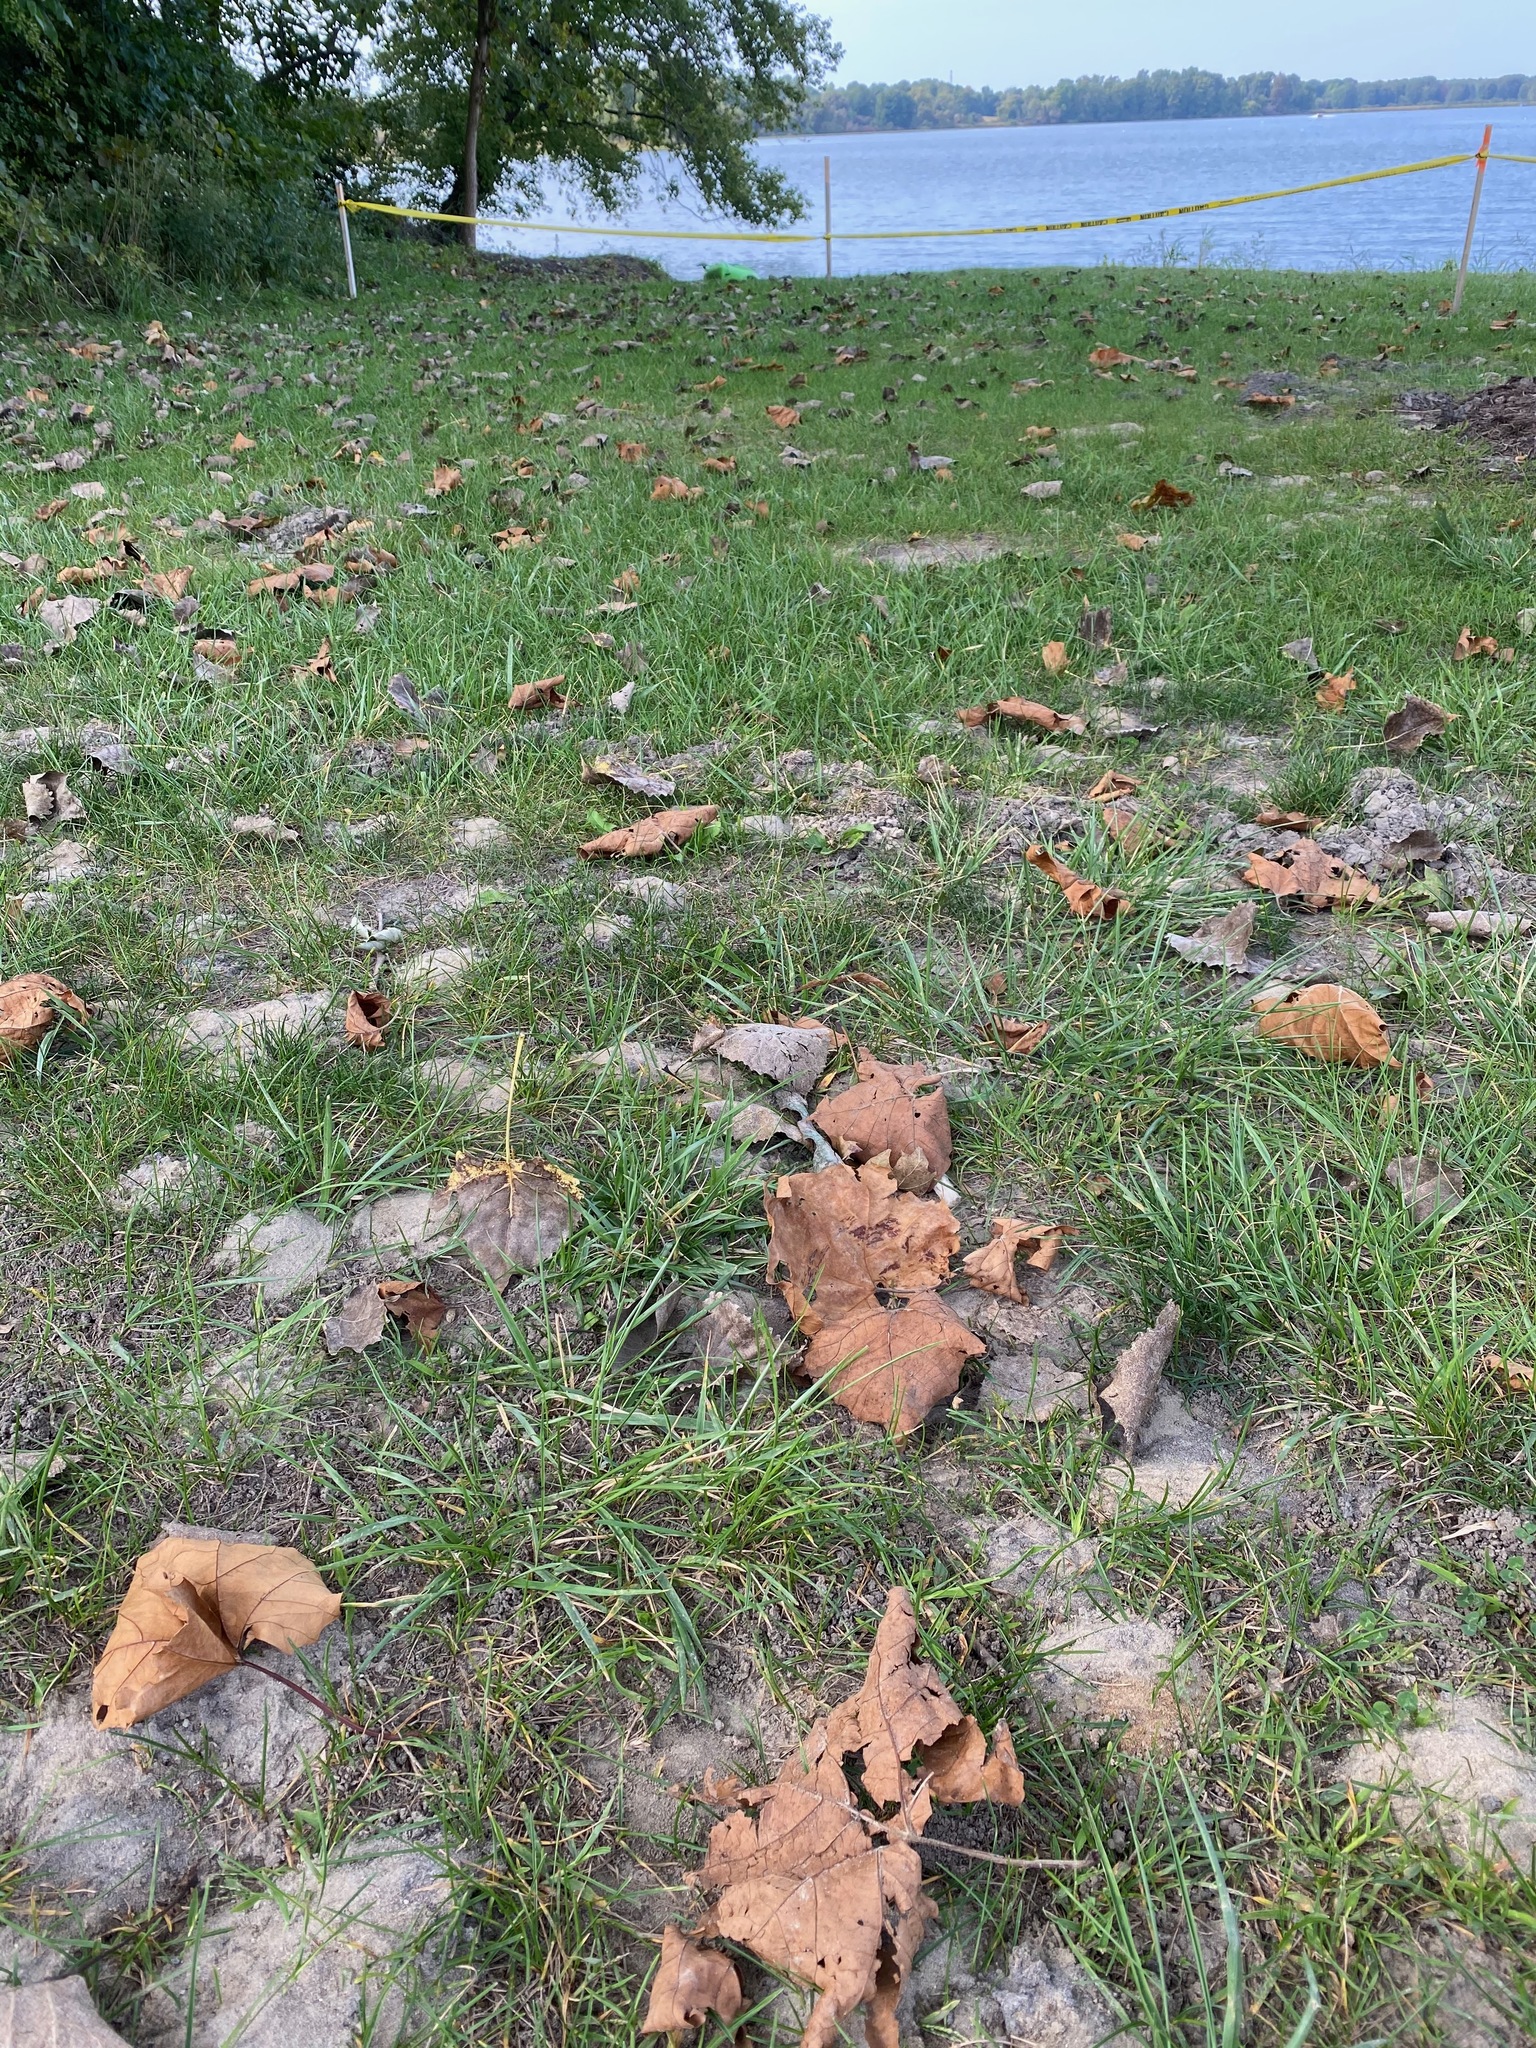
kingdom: Animalia
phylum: Arthropoda
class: Insecta
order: Hymenoptera
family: Andrenidae
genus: Andrena
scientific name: Andrena asteris
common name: Aster mining bee
